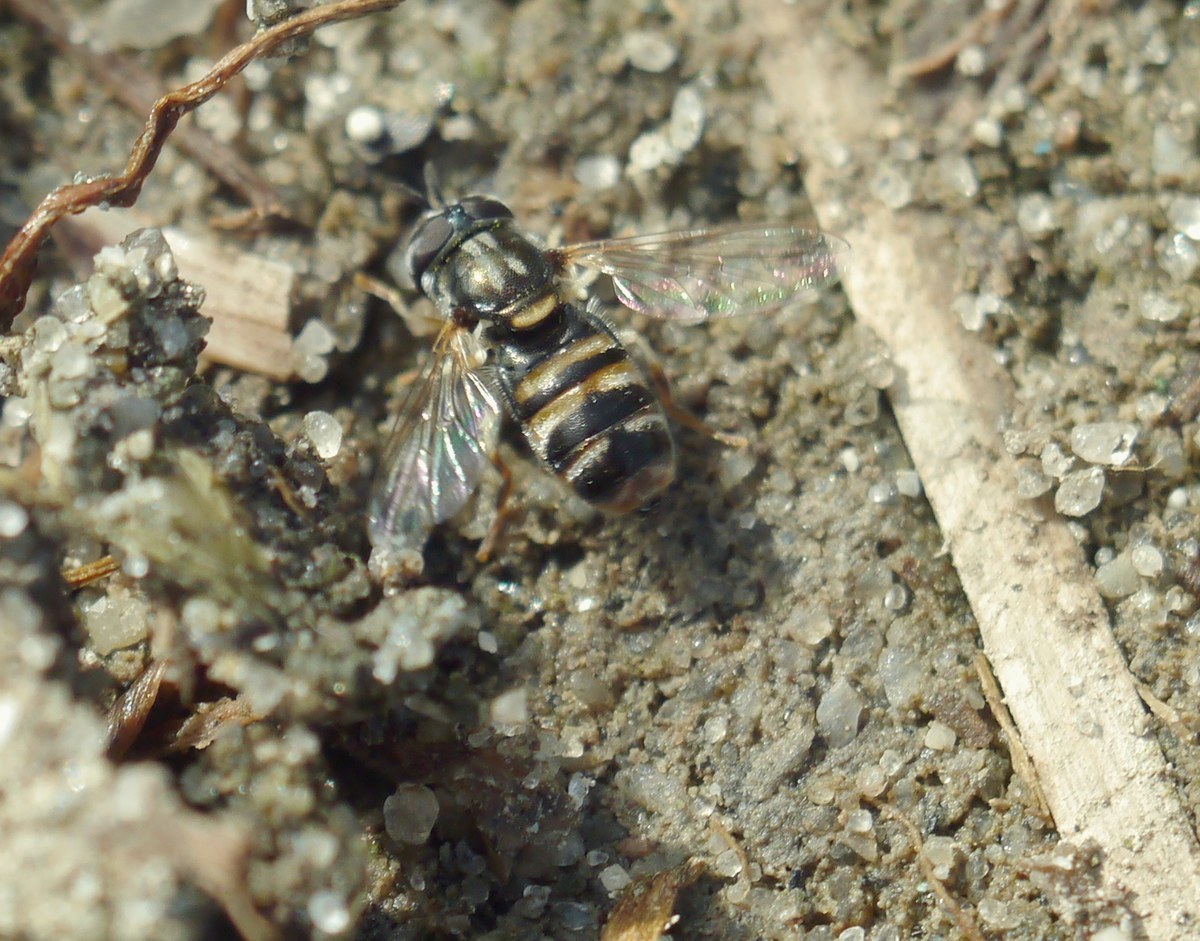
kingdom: Animalia
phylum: Arthropoda
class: Insecta
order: Diptera
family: Syrphidae
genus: Paragus
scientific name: Paragus quadrifasciatus
